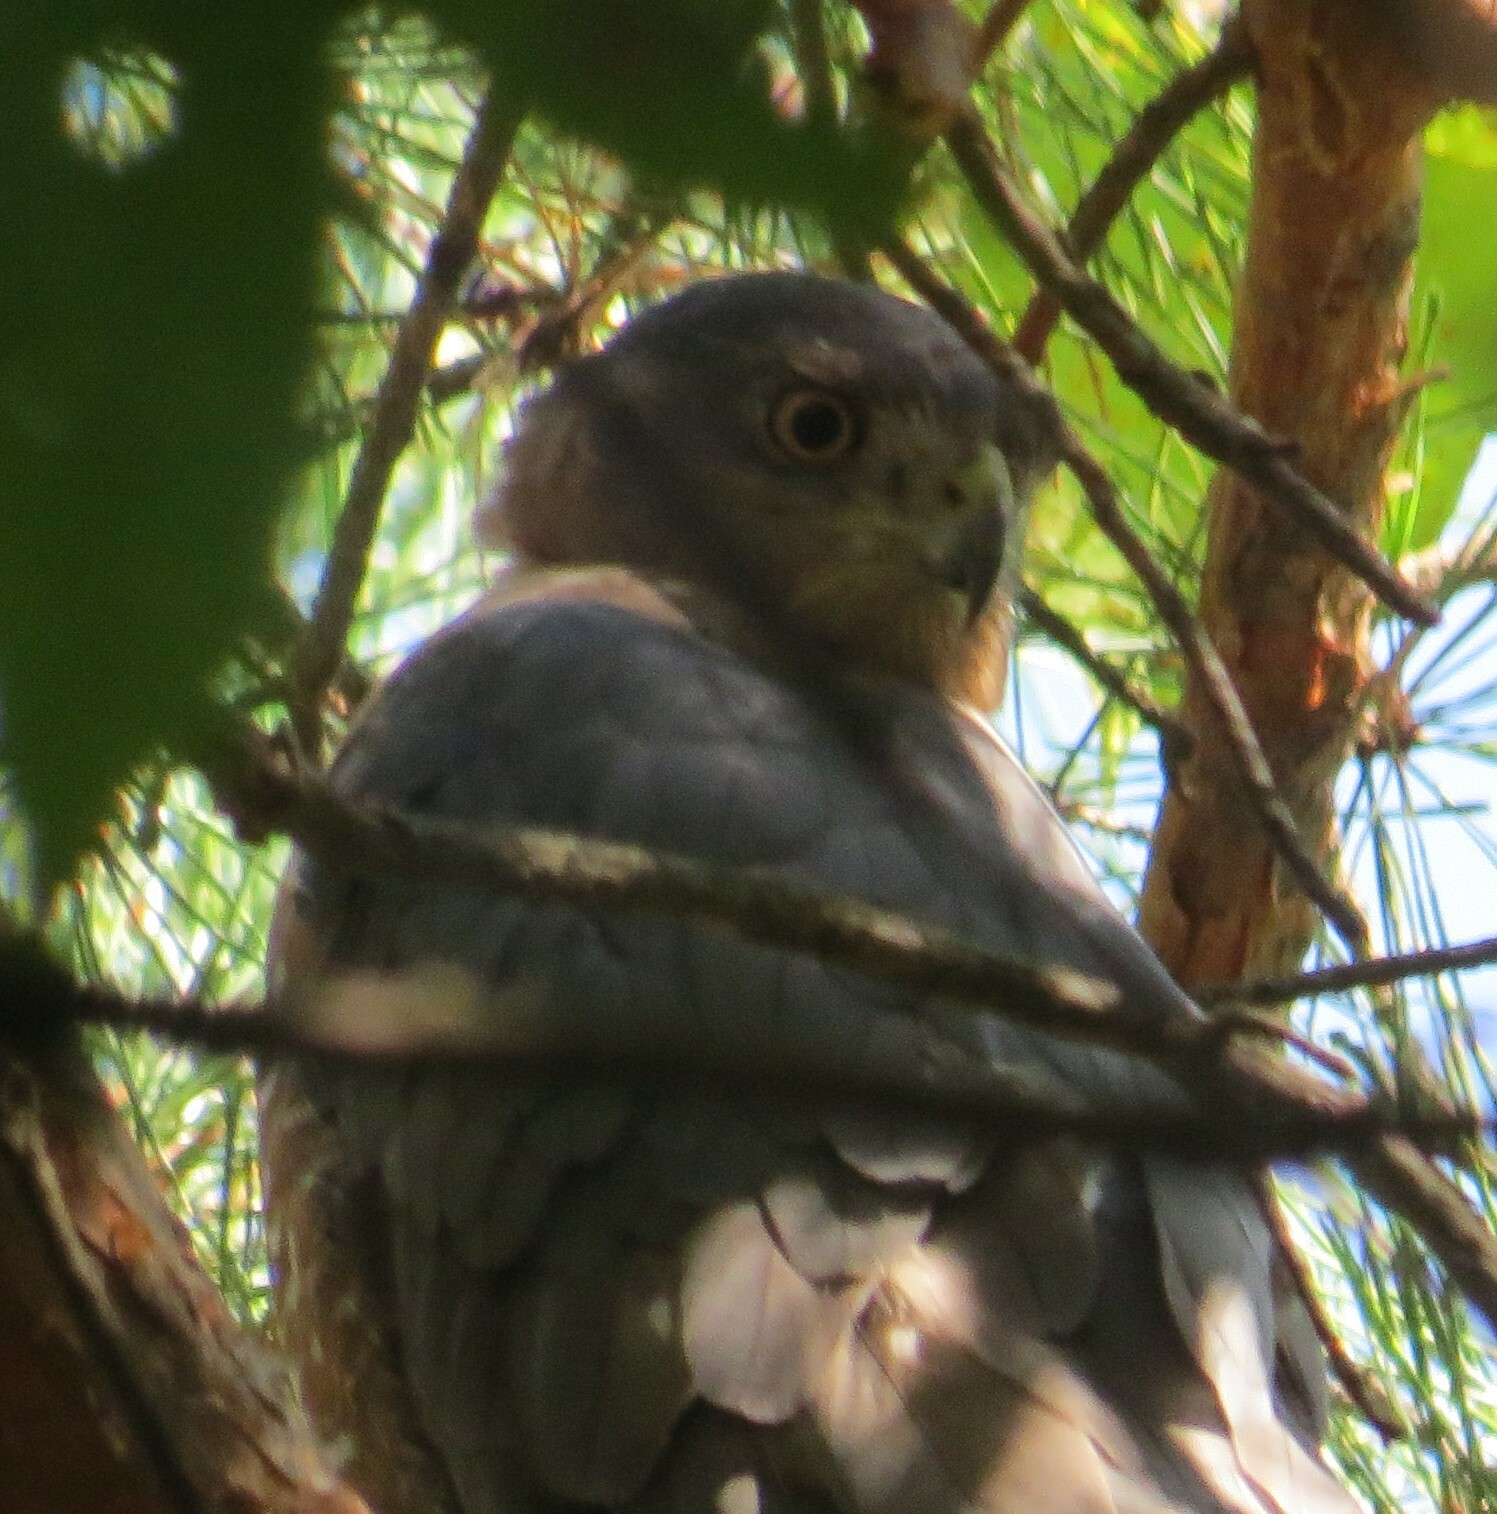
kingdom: Animalia
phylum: Chordata
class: Aves
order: Accipitriformes
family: Accipitridae
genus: Accipiter
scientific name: Accipiter cooperii
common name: Cooper's hawk
